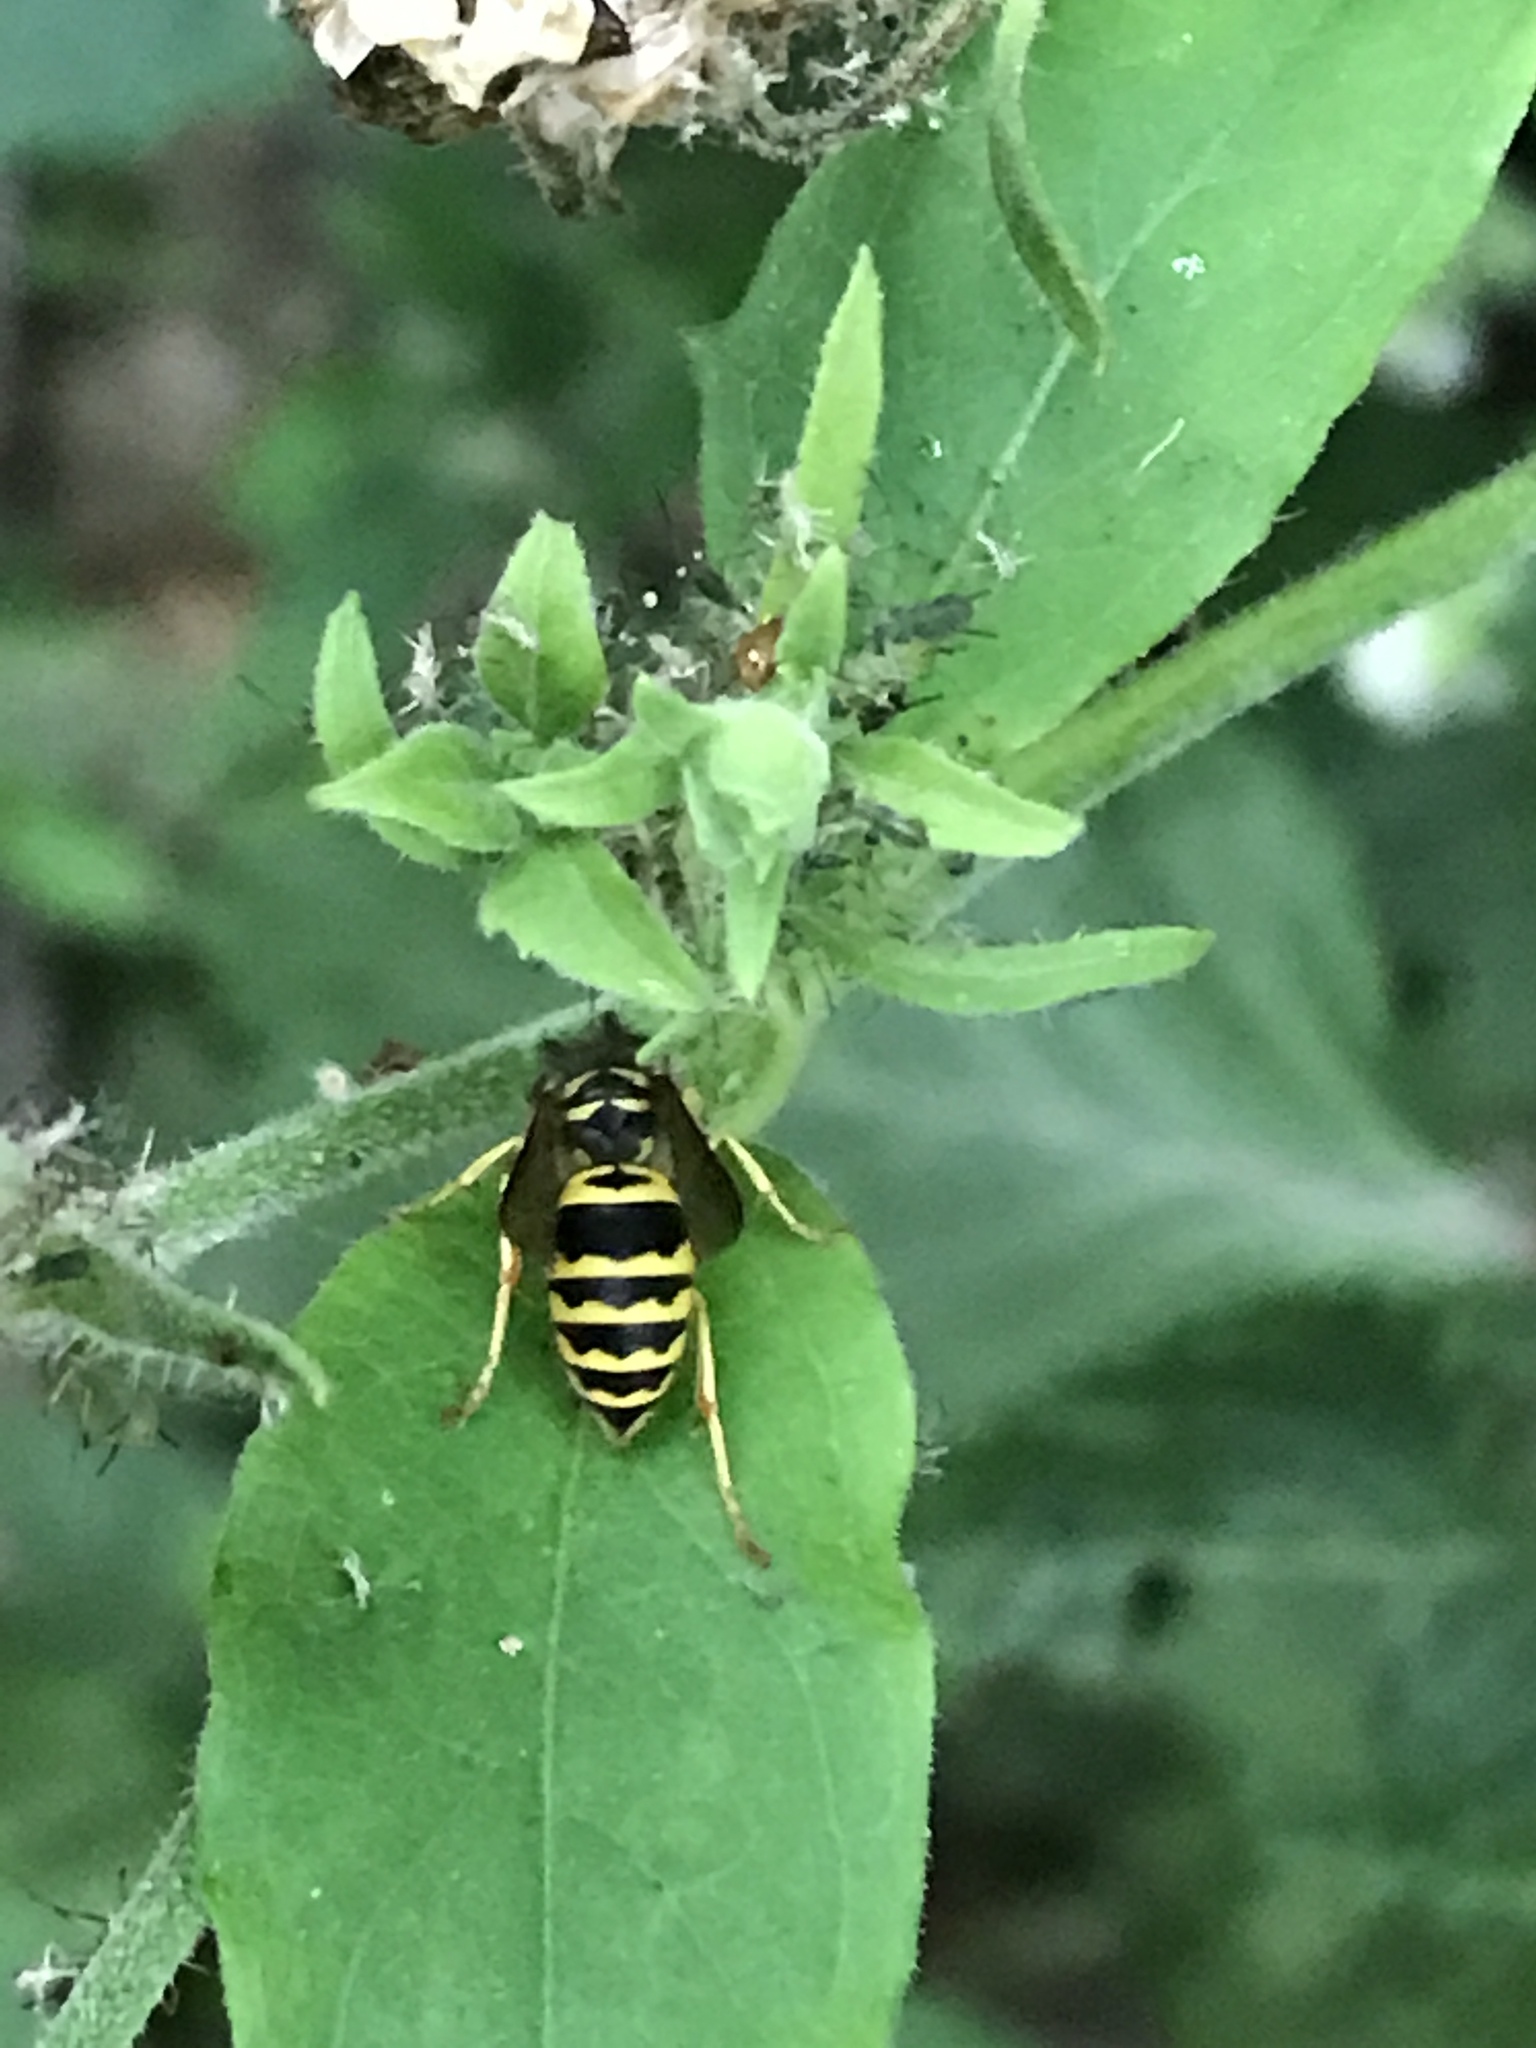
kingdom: Animalia
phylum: Arthropoda
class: Insecta
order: Hymenoptera
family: Vespidae
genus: Vespula
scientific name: Vespula maculifrons
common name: Eastern yellowjacket
